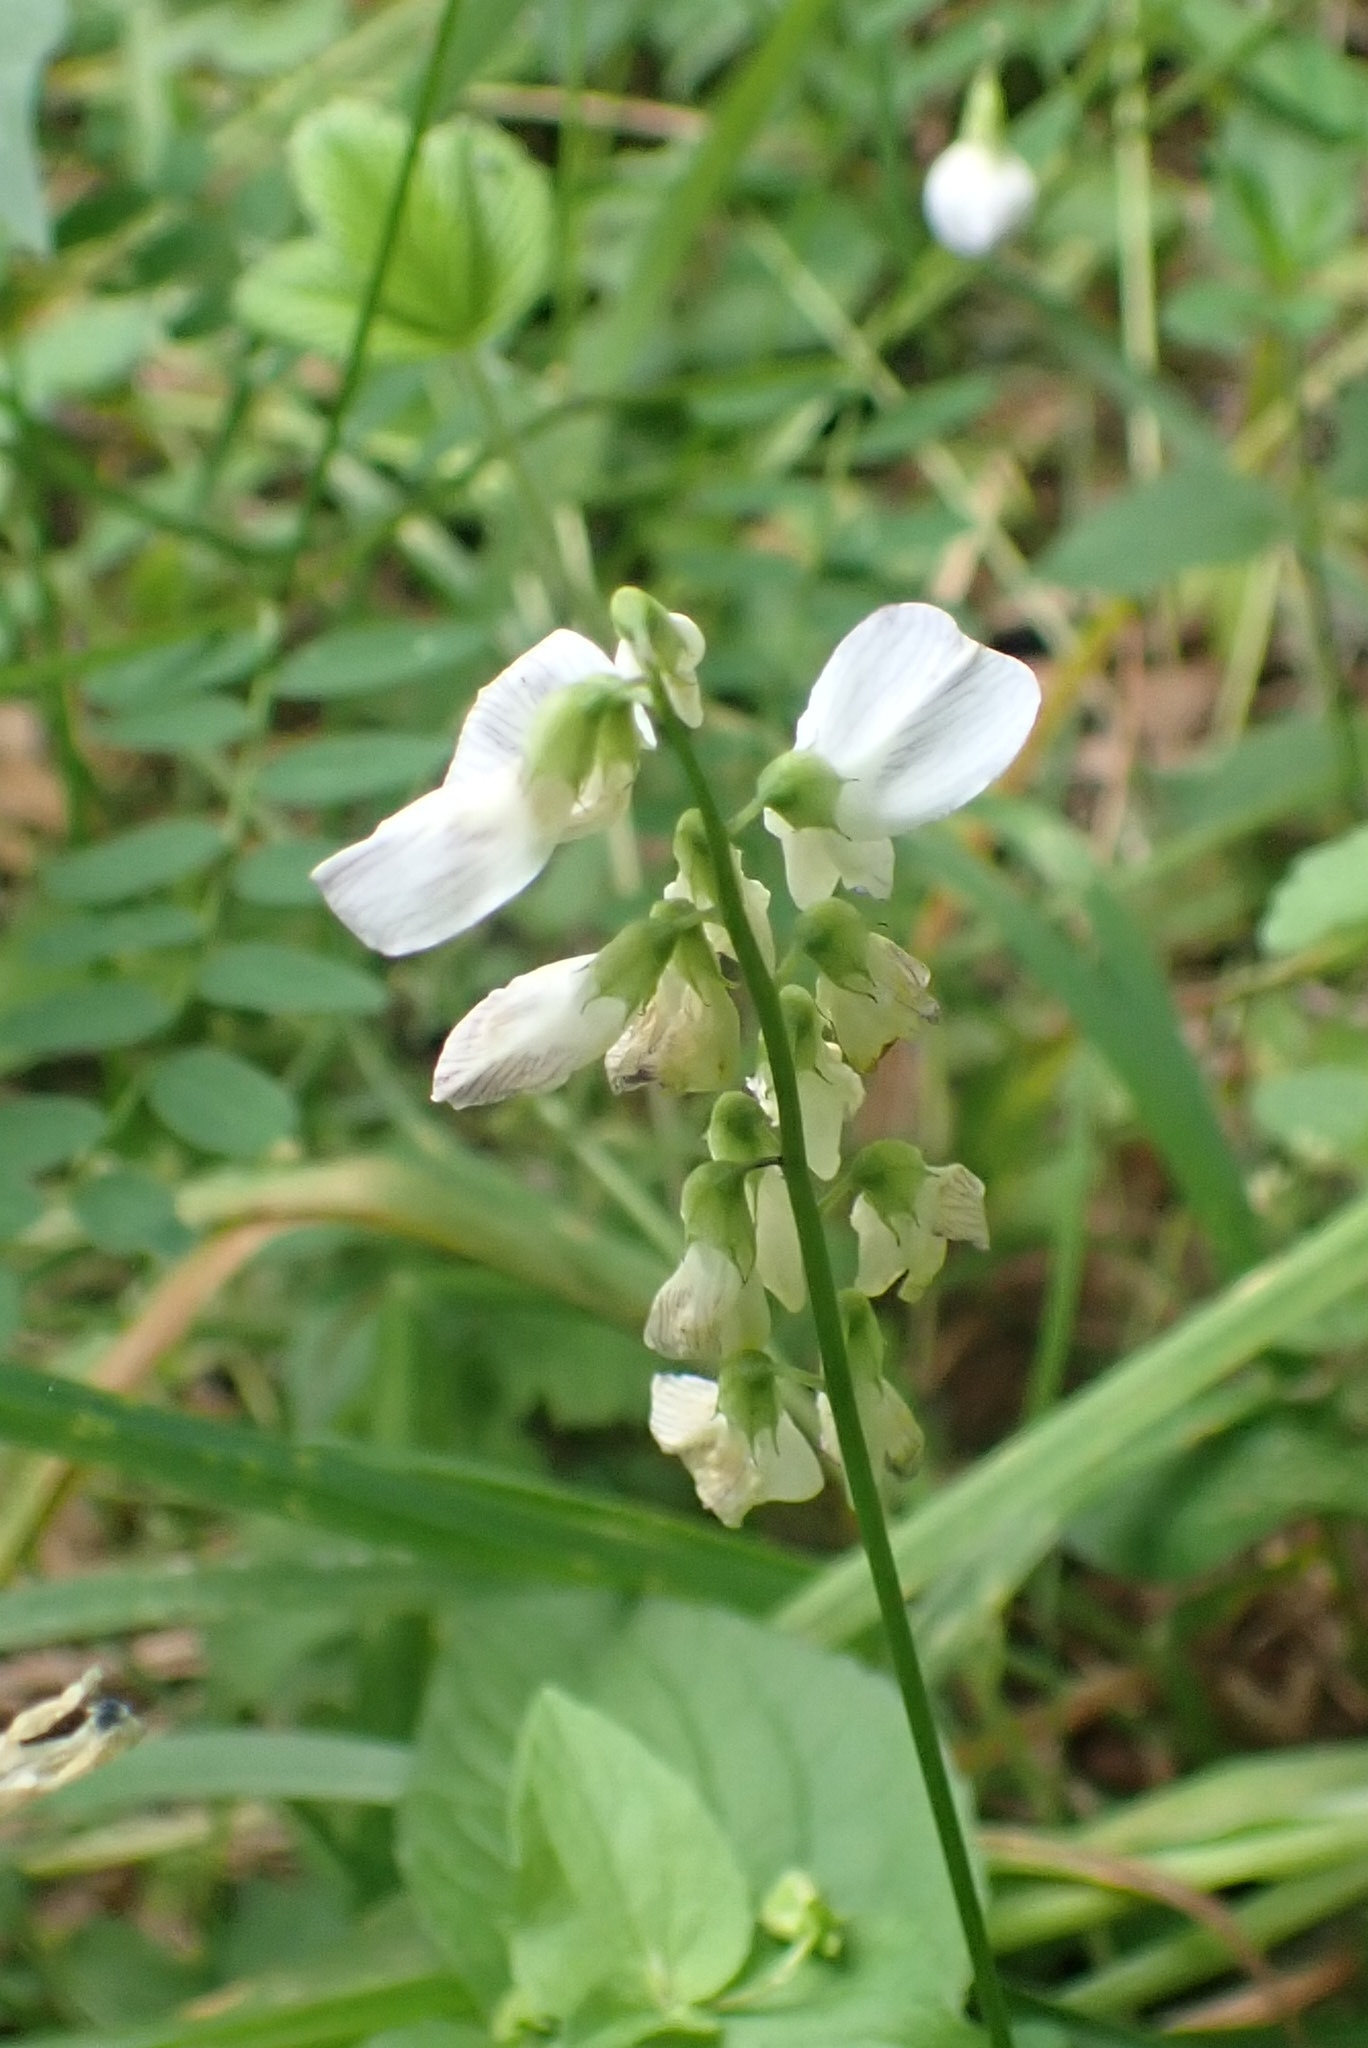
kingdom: Plantae
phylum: Tracheophyta
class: Magnoliopsida
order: Fabales
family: Fabaceae
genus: Vicia
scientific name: Vicia sylvatica
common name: Wood vetch
